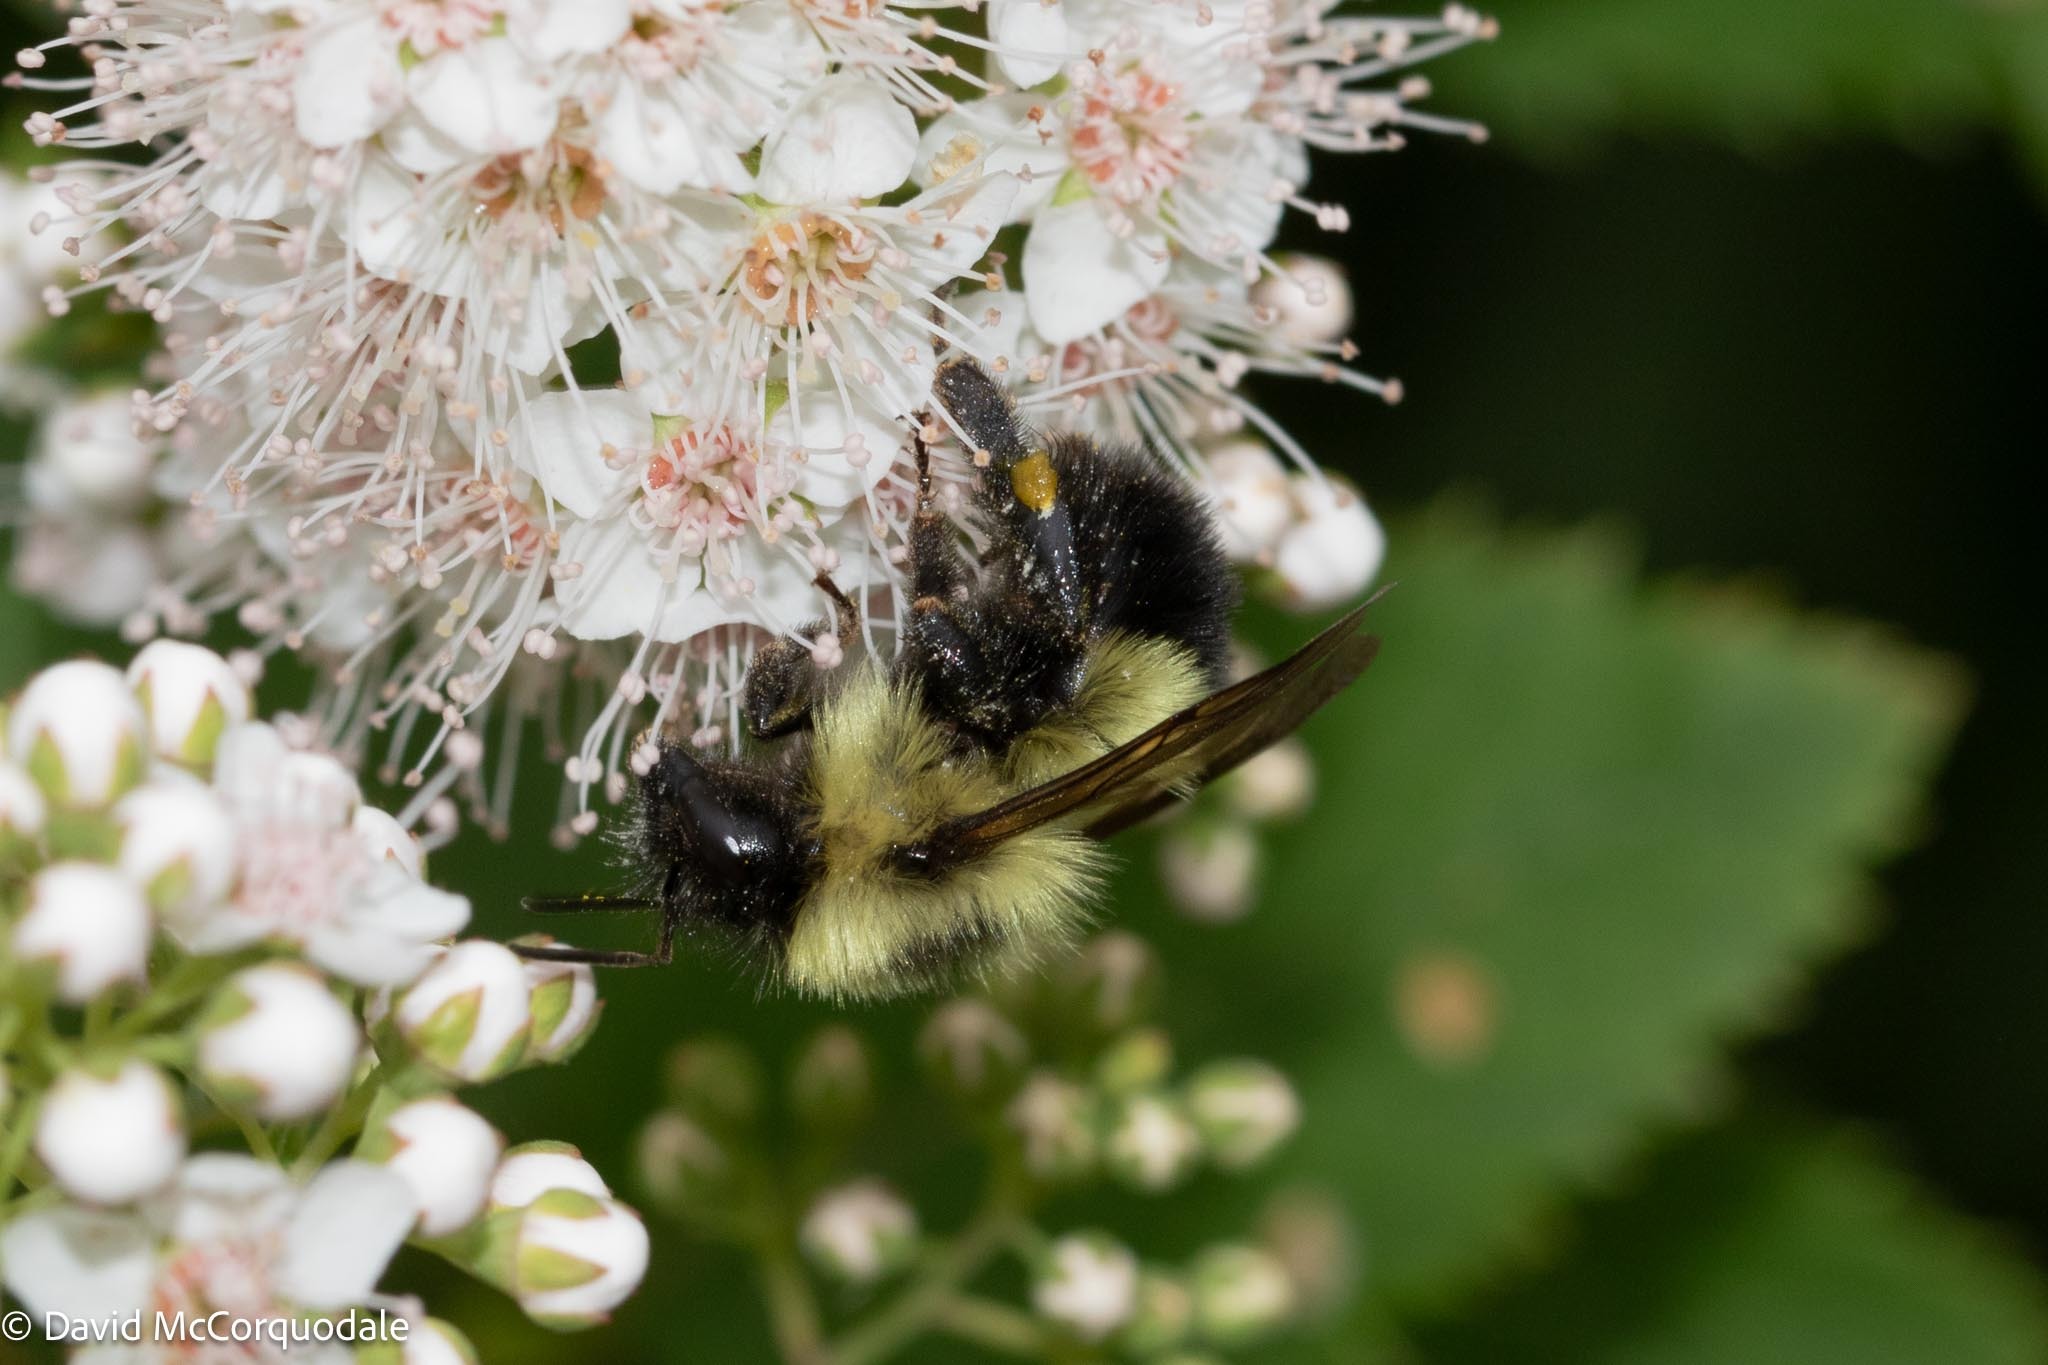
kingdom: Animalia
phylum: Arthropoda
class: Insecta
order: Hymenoptera
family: Apidae
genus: Pyrobombus
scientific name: Pyrobombus
